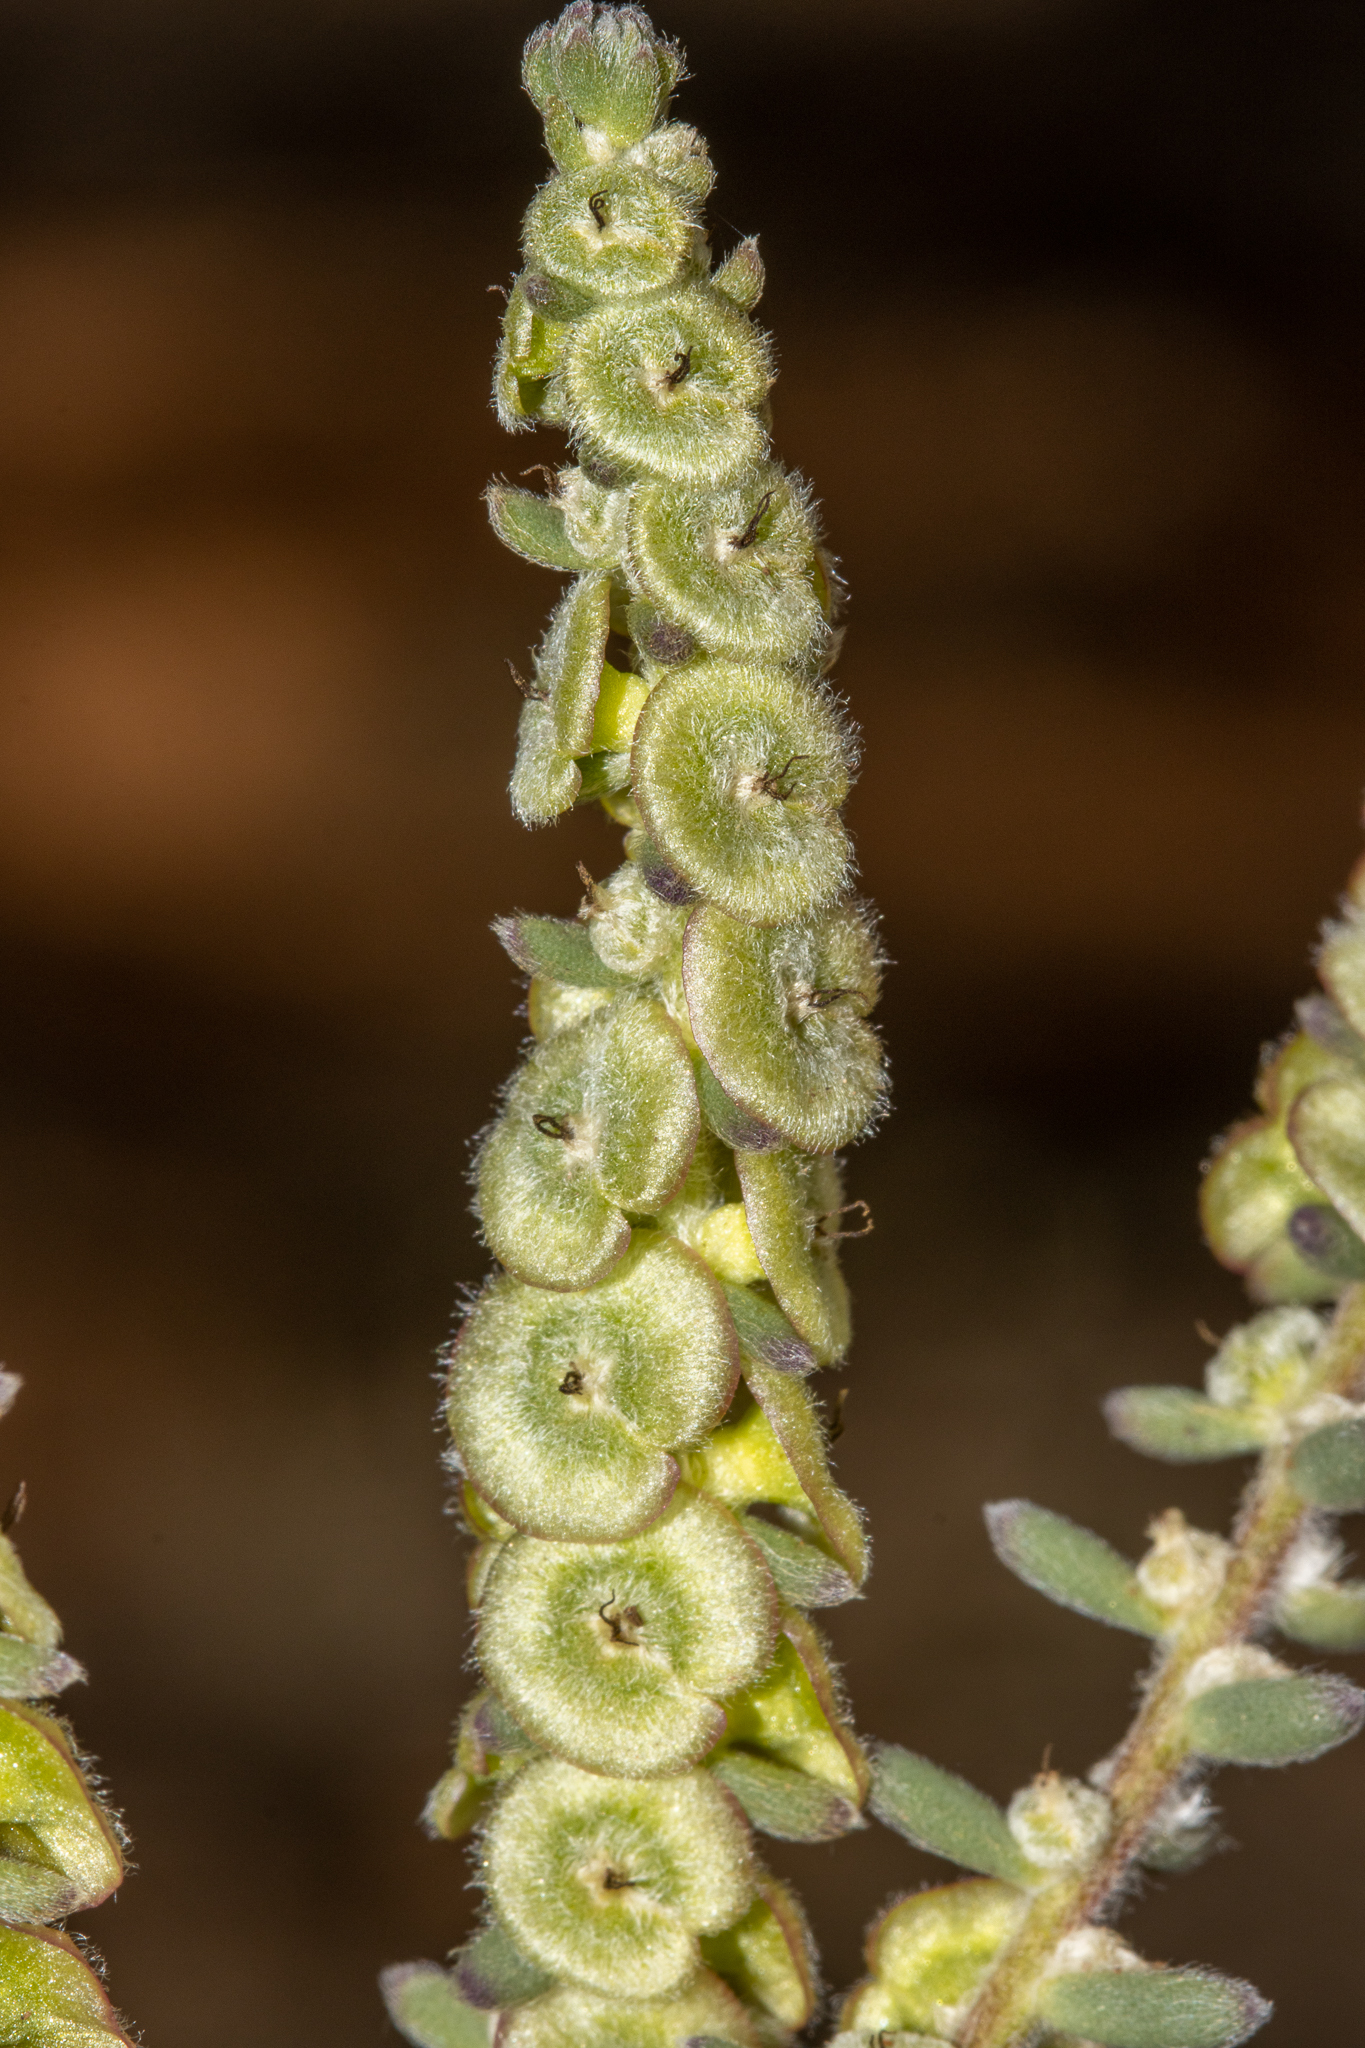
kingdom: Plantae
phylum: Tracheophyta
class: Magnoliopsida
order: Caryophyllales
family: Amaranthaceae
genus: Maireana
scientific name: Maireana trichoptera
